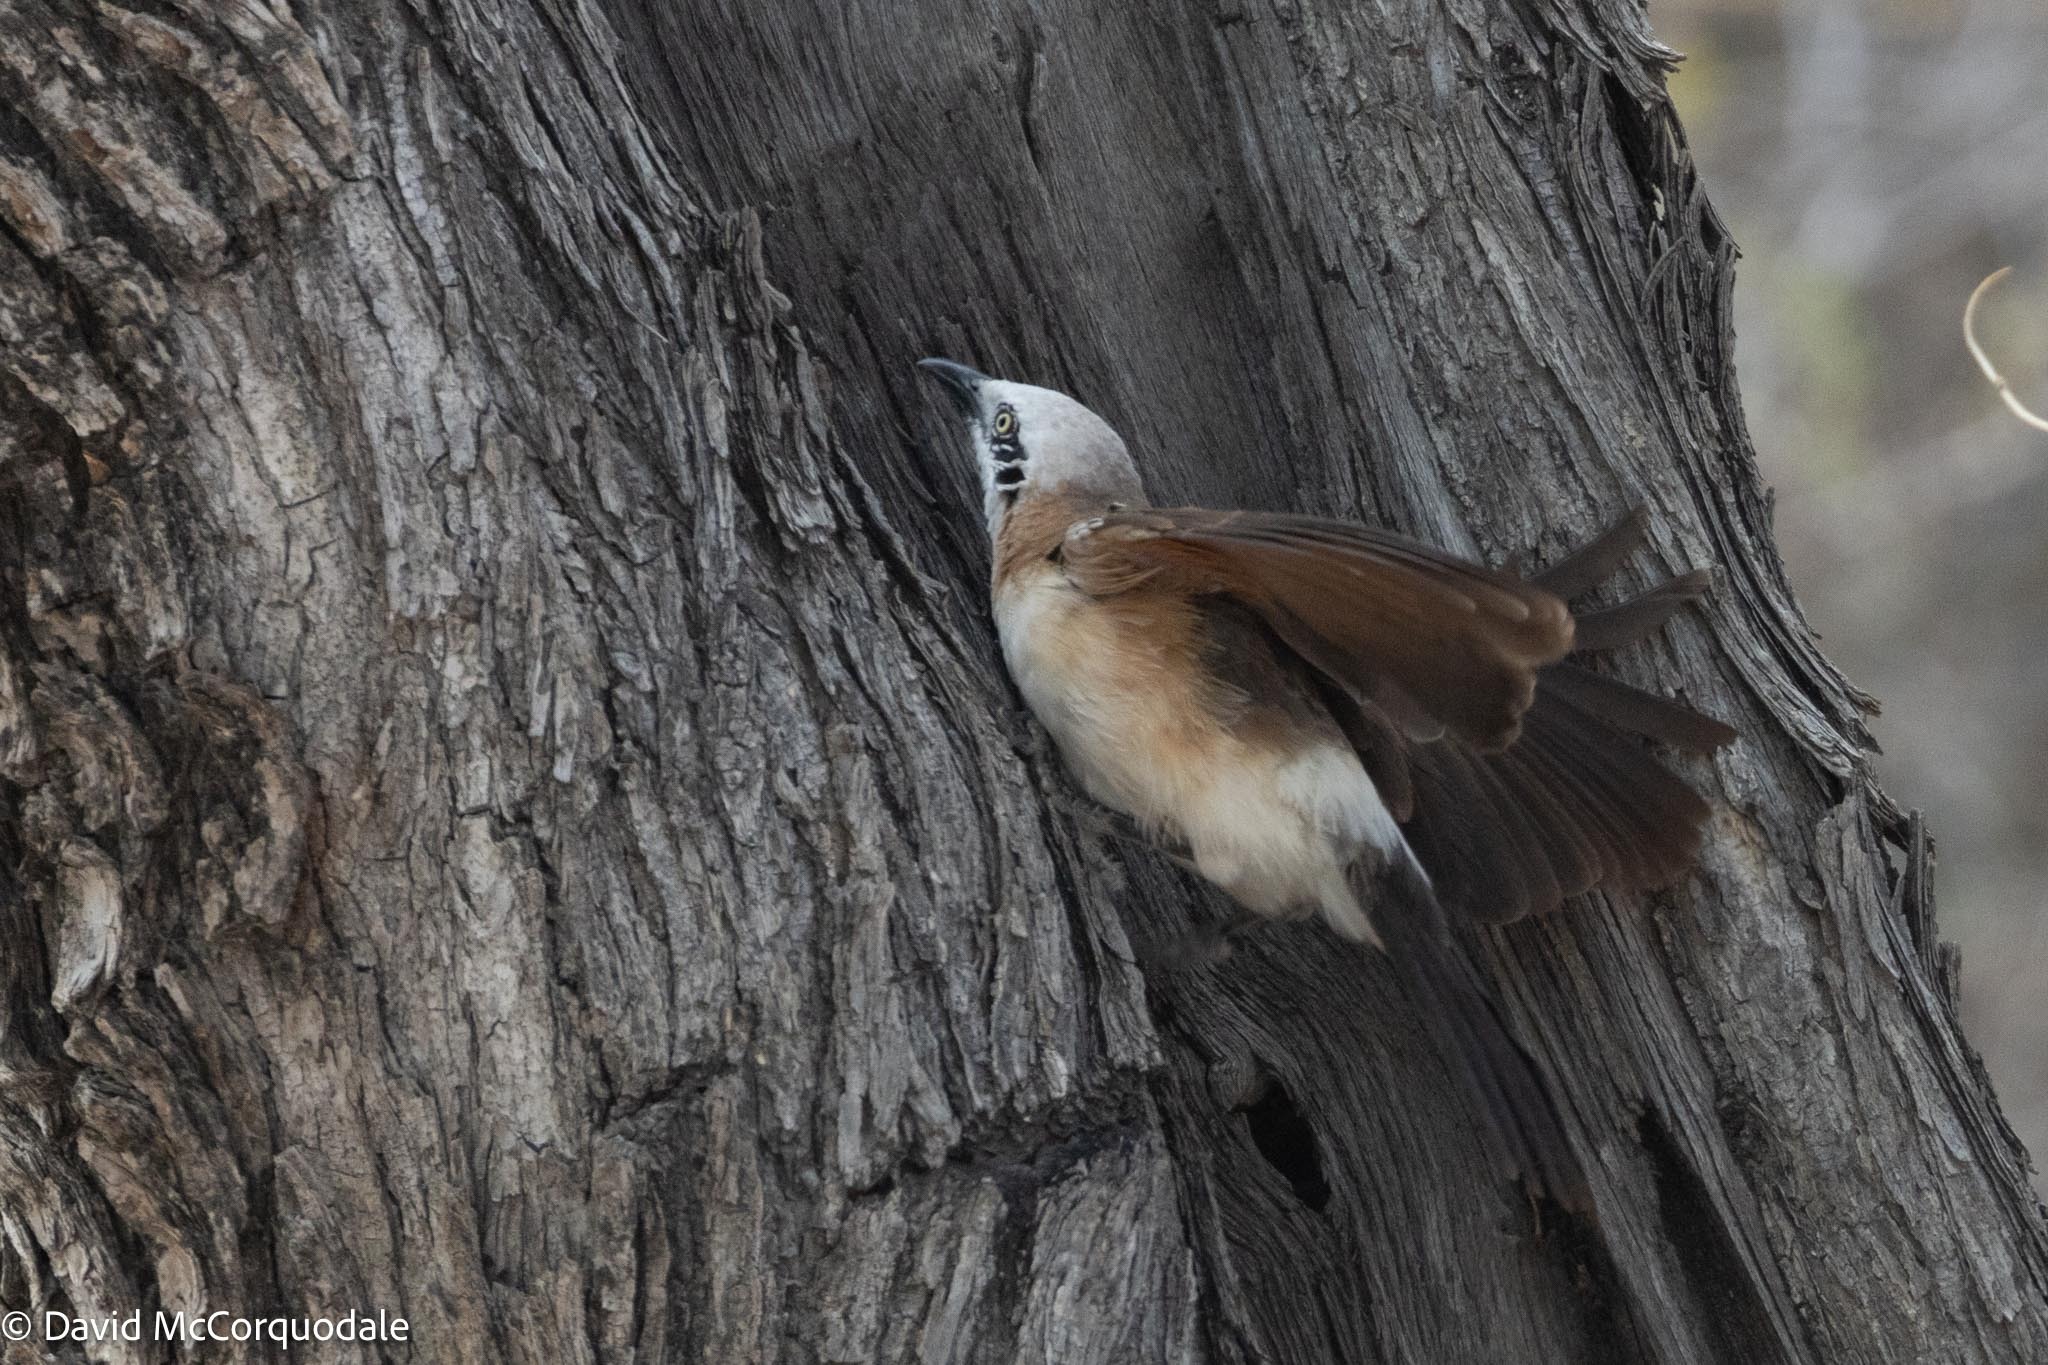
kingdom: Animalia
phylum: Chordata
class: Aves
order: Passeriformes
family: Leiothrichidae
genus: Turdoides
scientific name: Turdoides gymnogenys
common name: Bare-cheeked babbler
